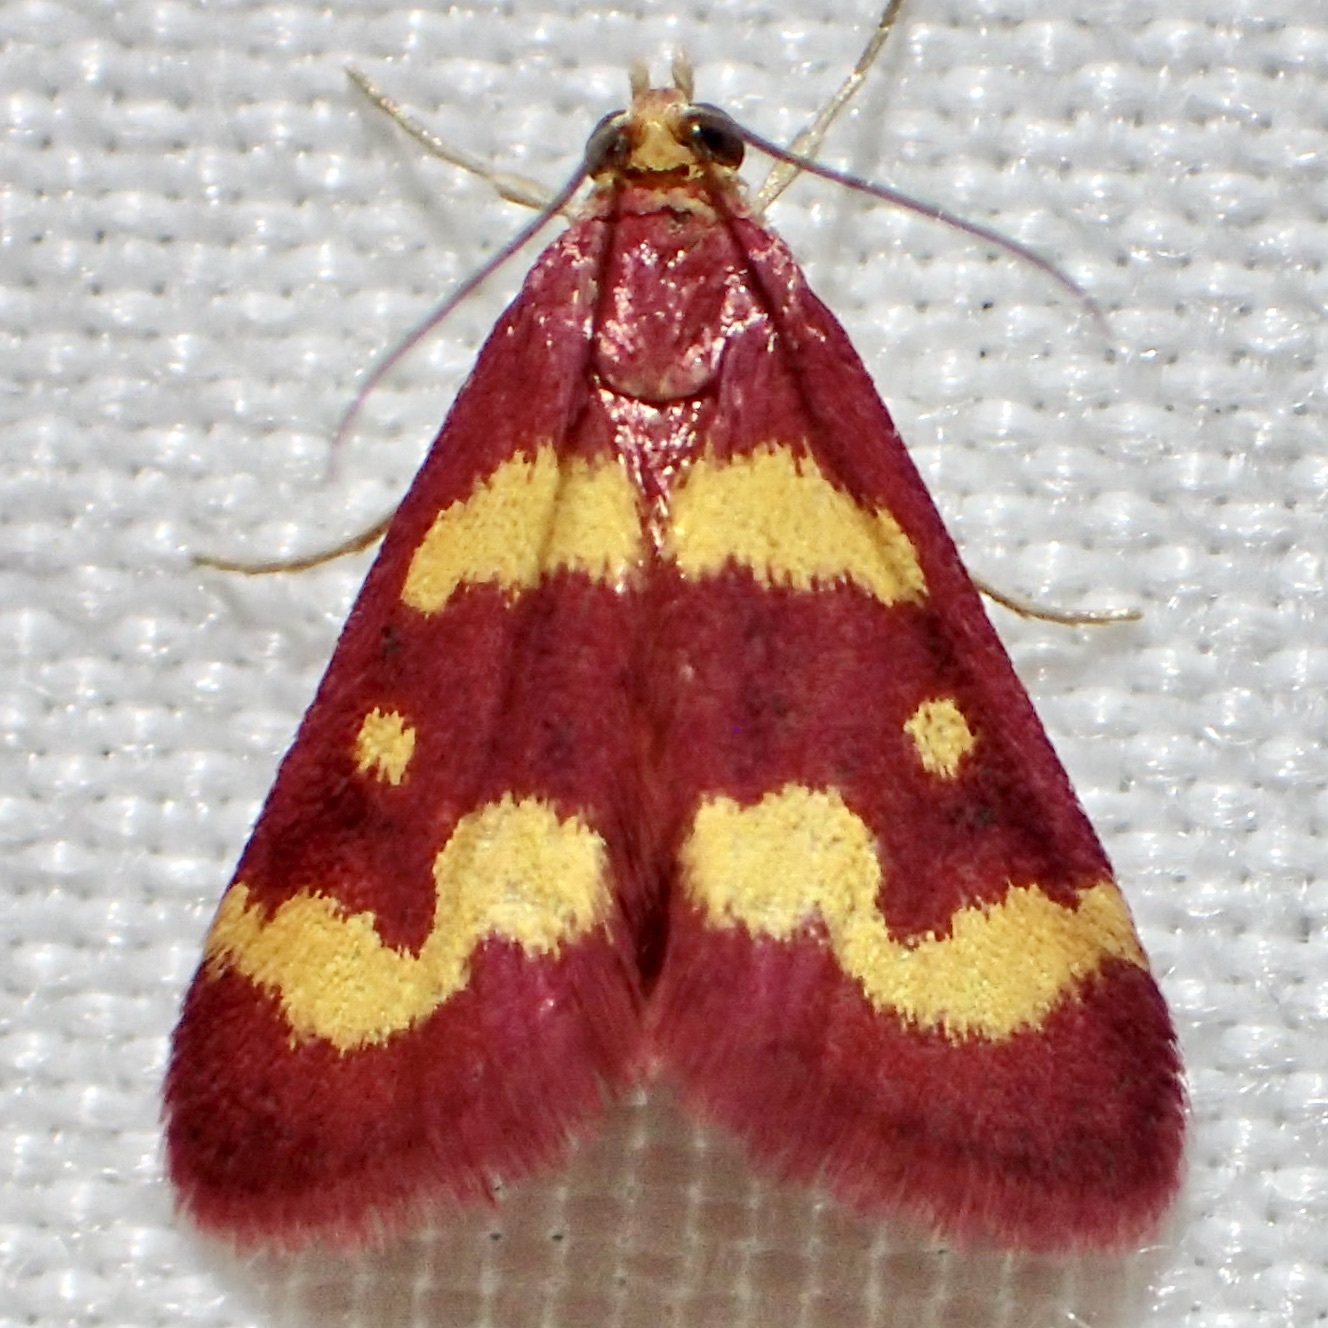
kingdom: Animalia
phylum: Arthropoda
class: Insecta
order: Lepidoptera
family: Crambidae
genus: Pyrausta
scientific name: Pyrausta tyralis
